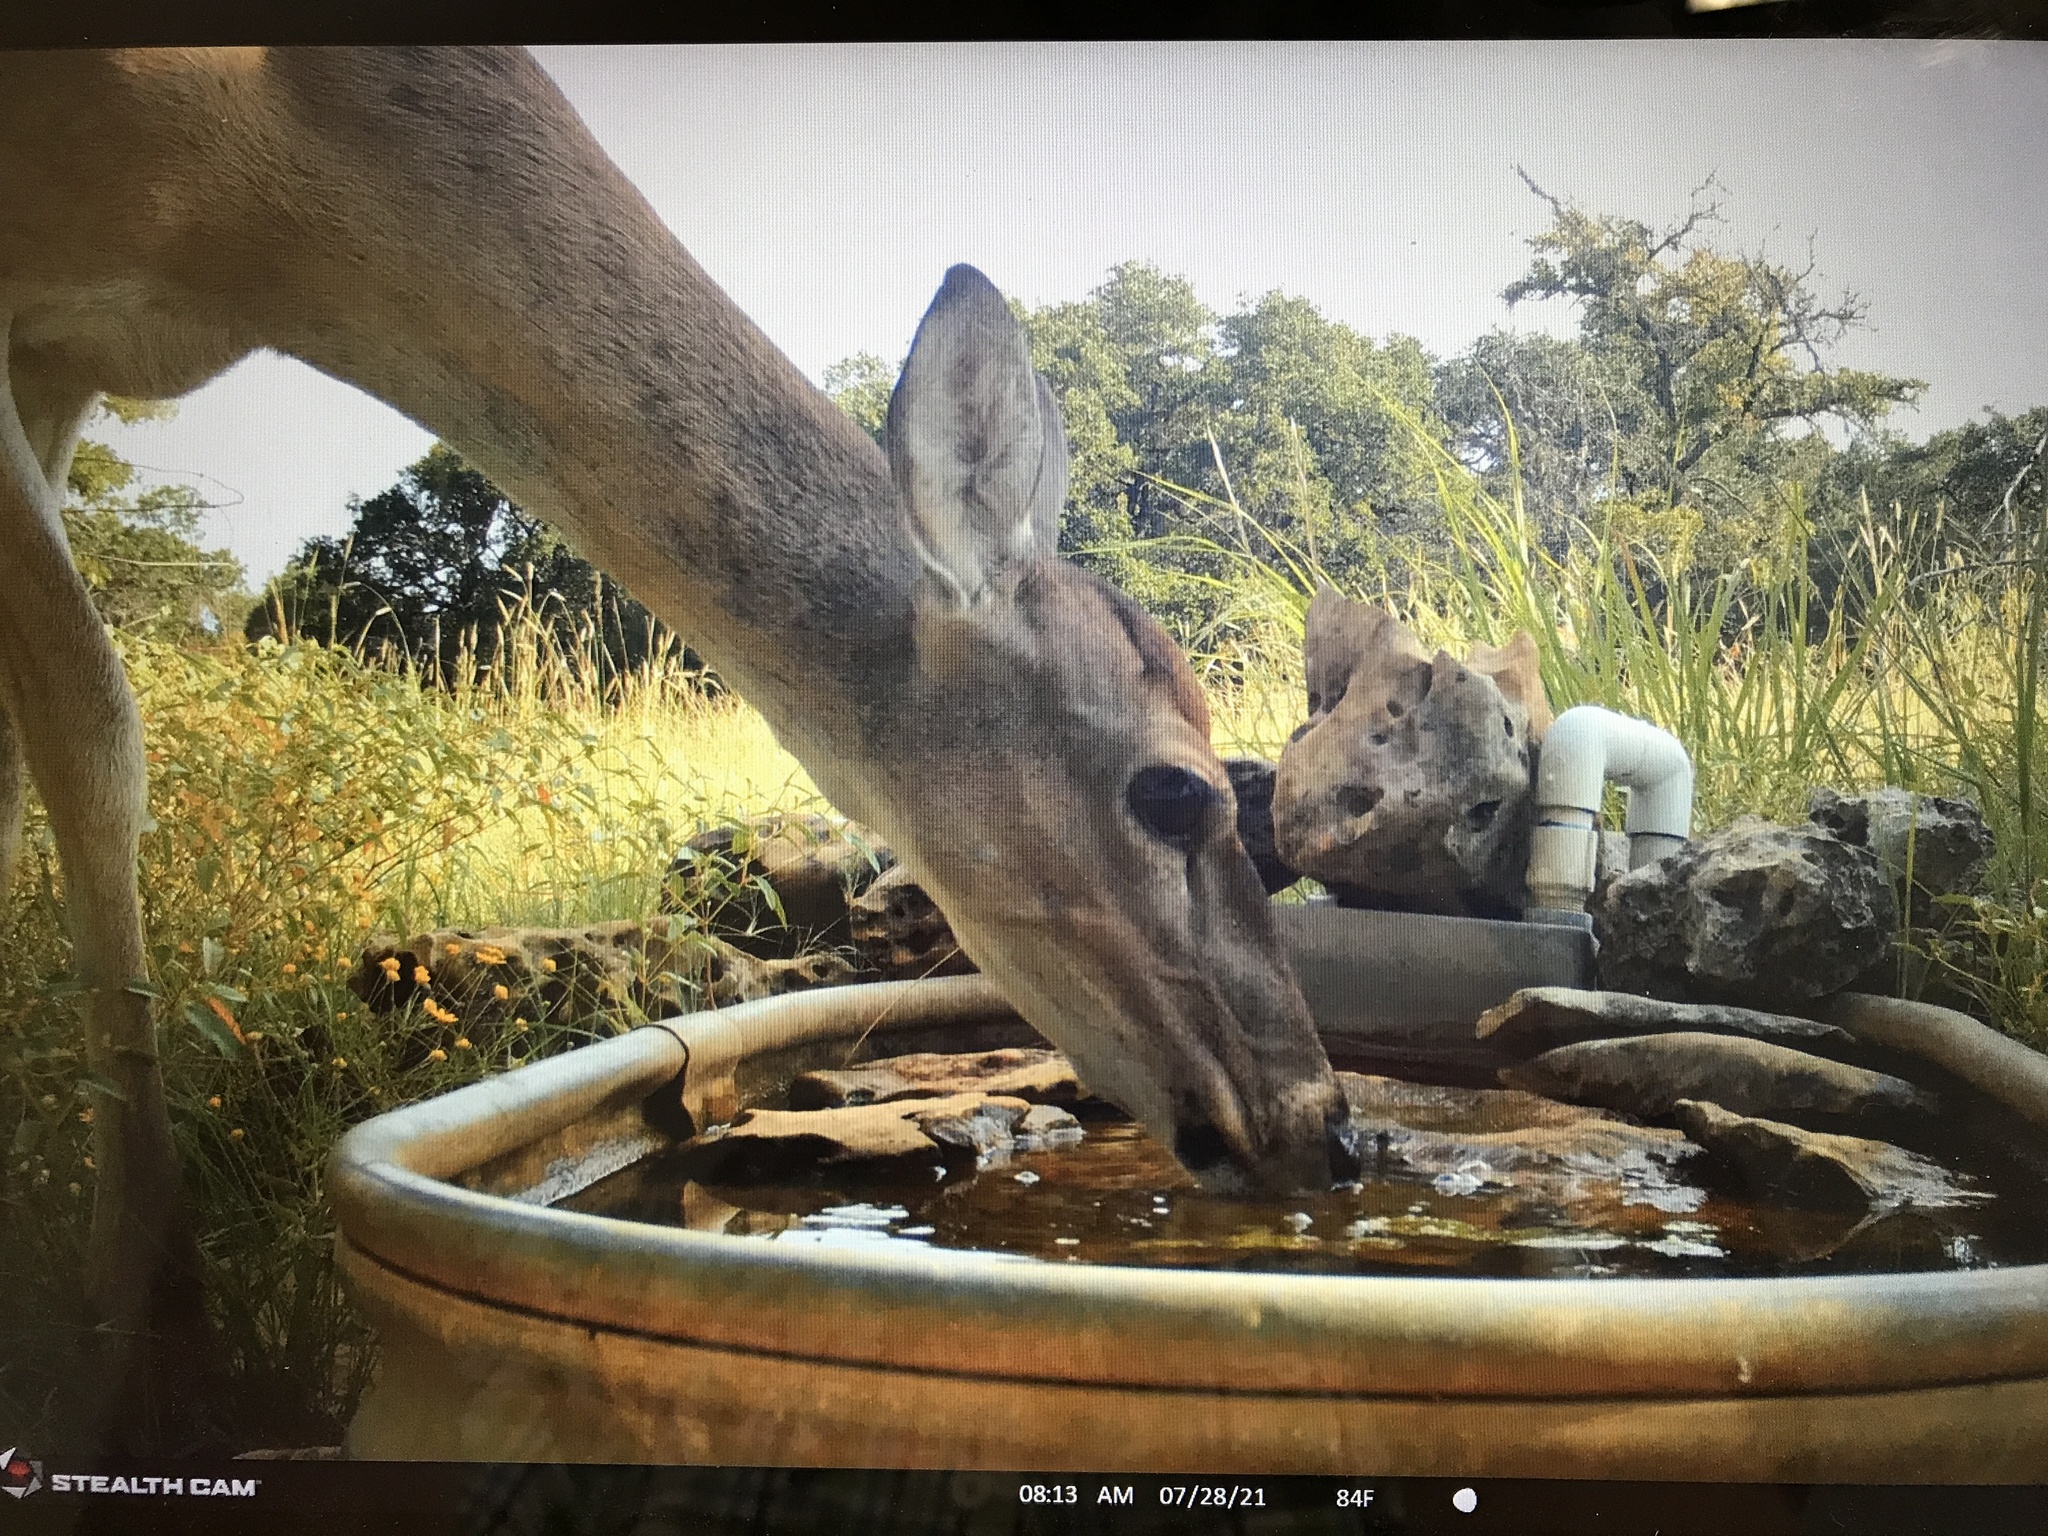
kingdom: Animalia
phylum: Chordata
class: Mammalia
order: Artiodactyla
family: Cervidae
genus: Odocoileus
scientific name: Odocoileus virginianus
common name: White-tailed deer
